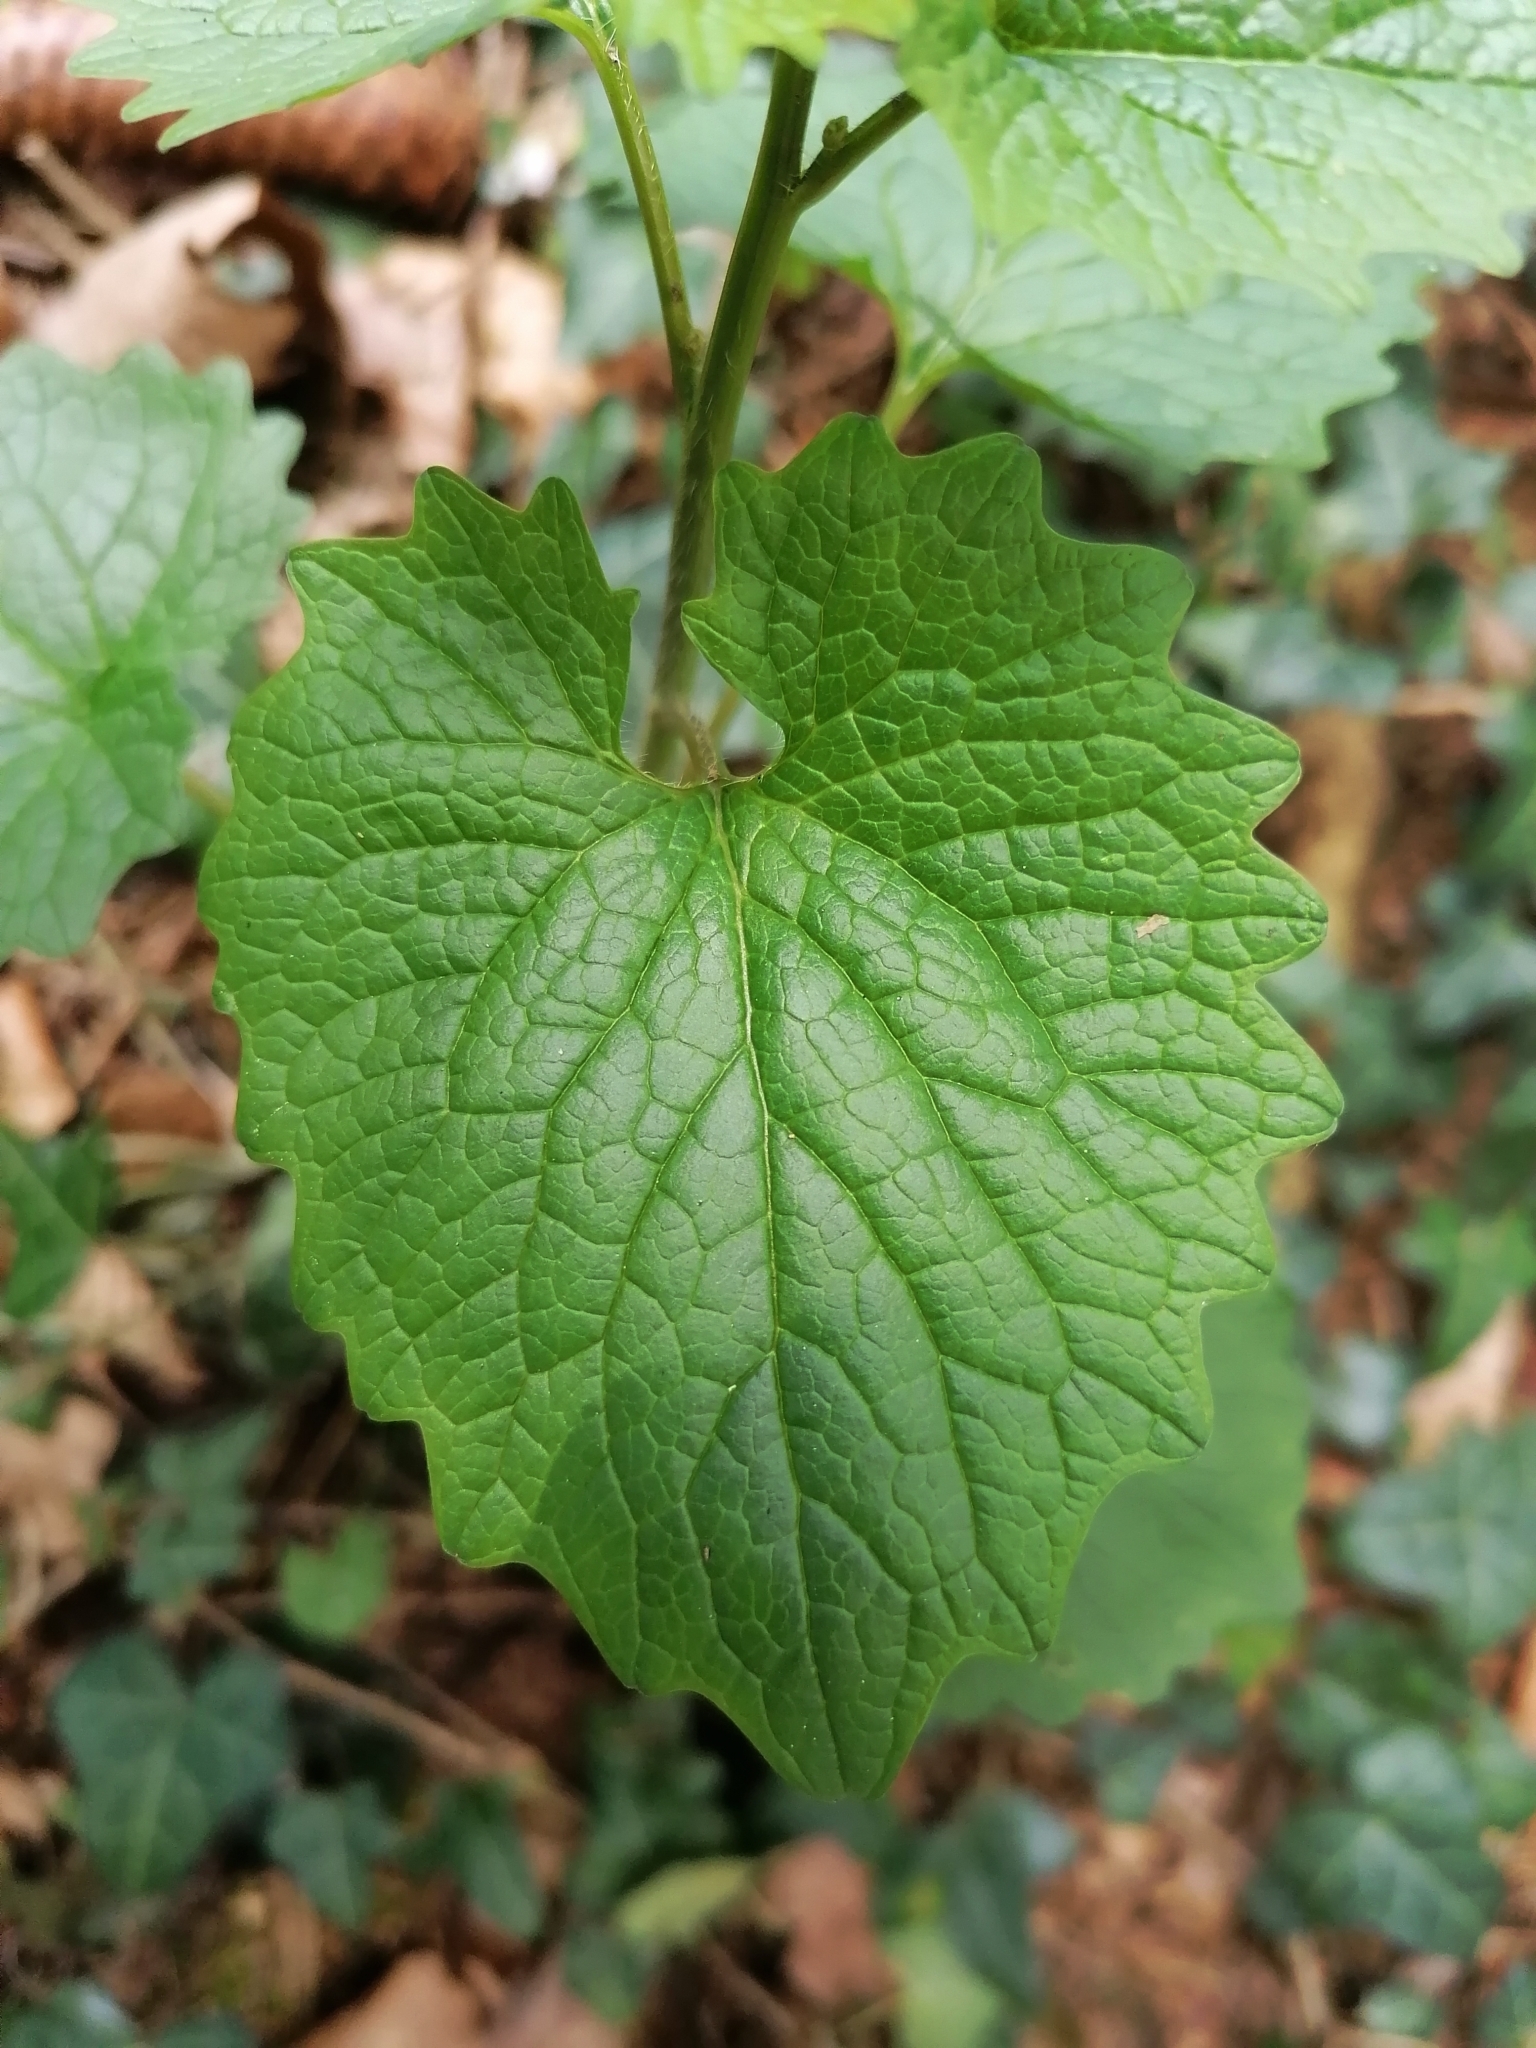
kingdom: Plantae
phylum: Tracheophyta
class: Magnoliopsida
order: Brassicales
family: Brassicaceae
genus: Alliaria
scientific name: Alliaria petiolata
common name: Garlic mustard
